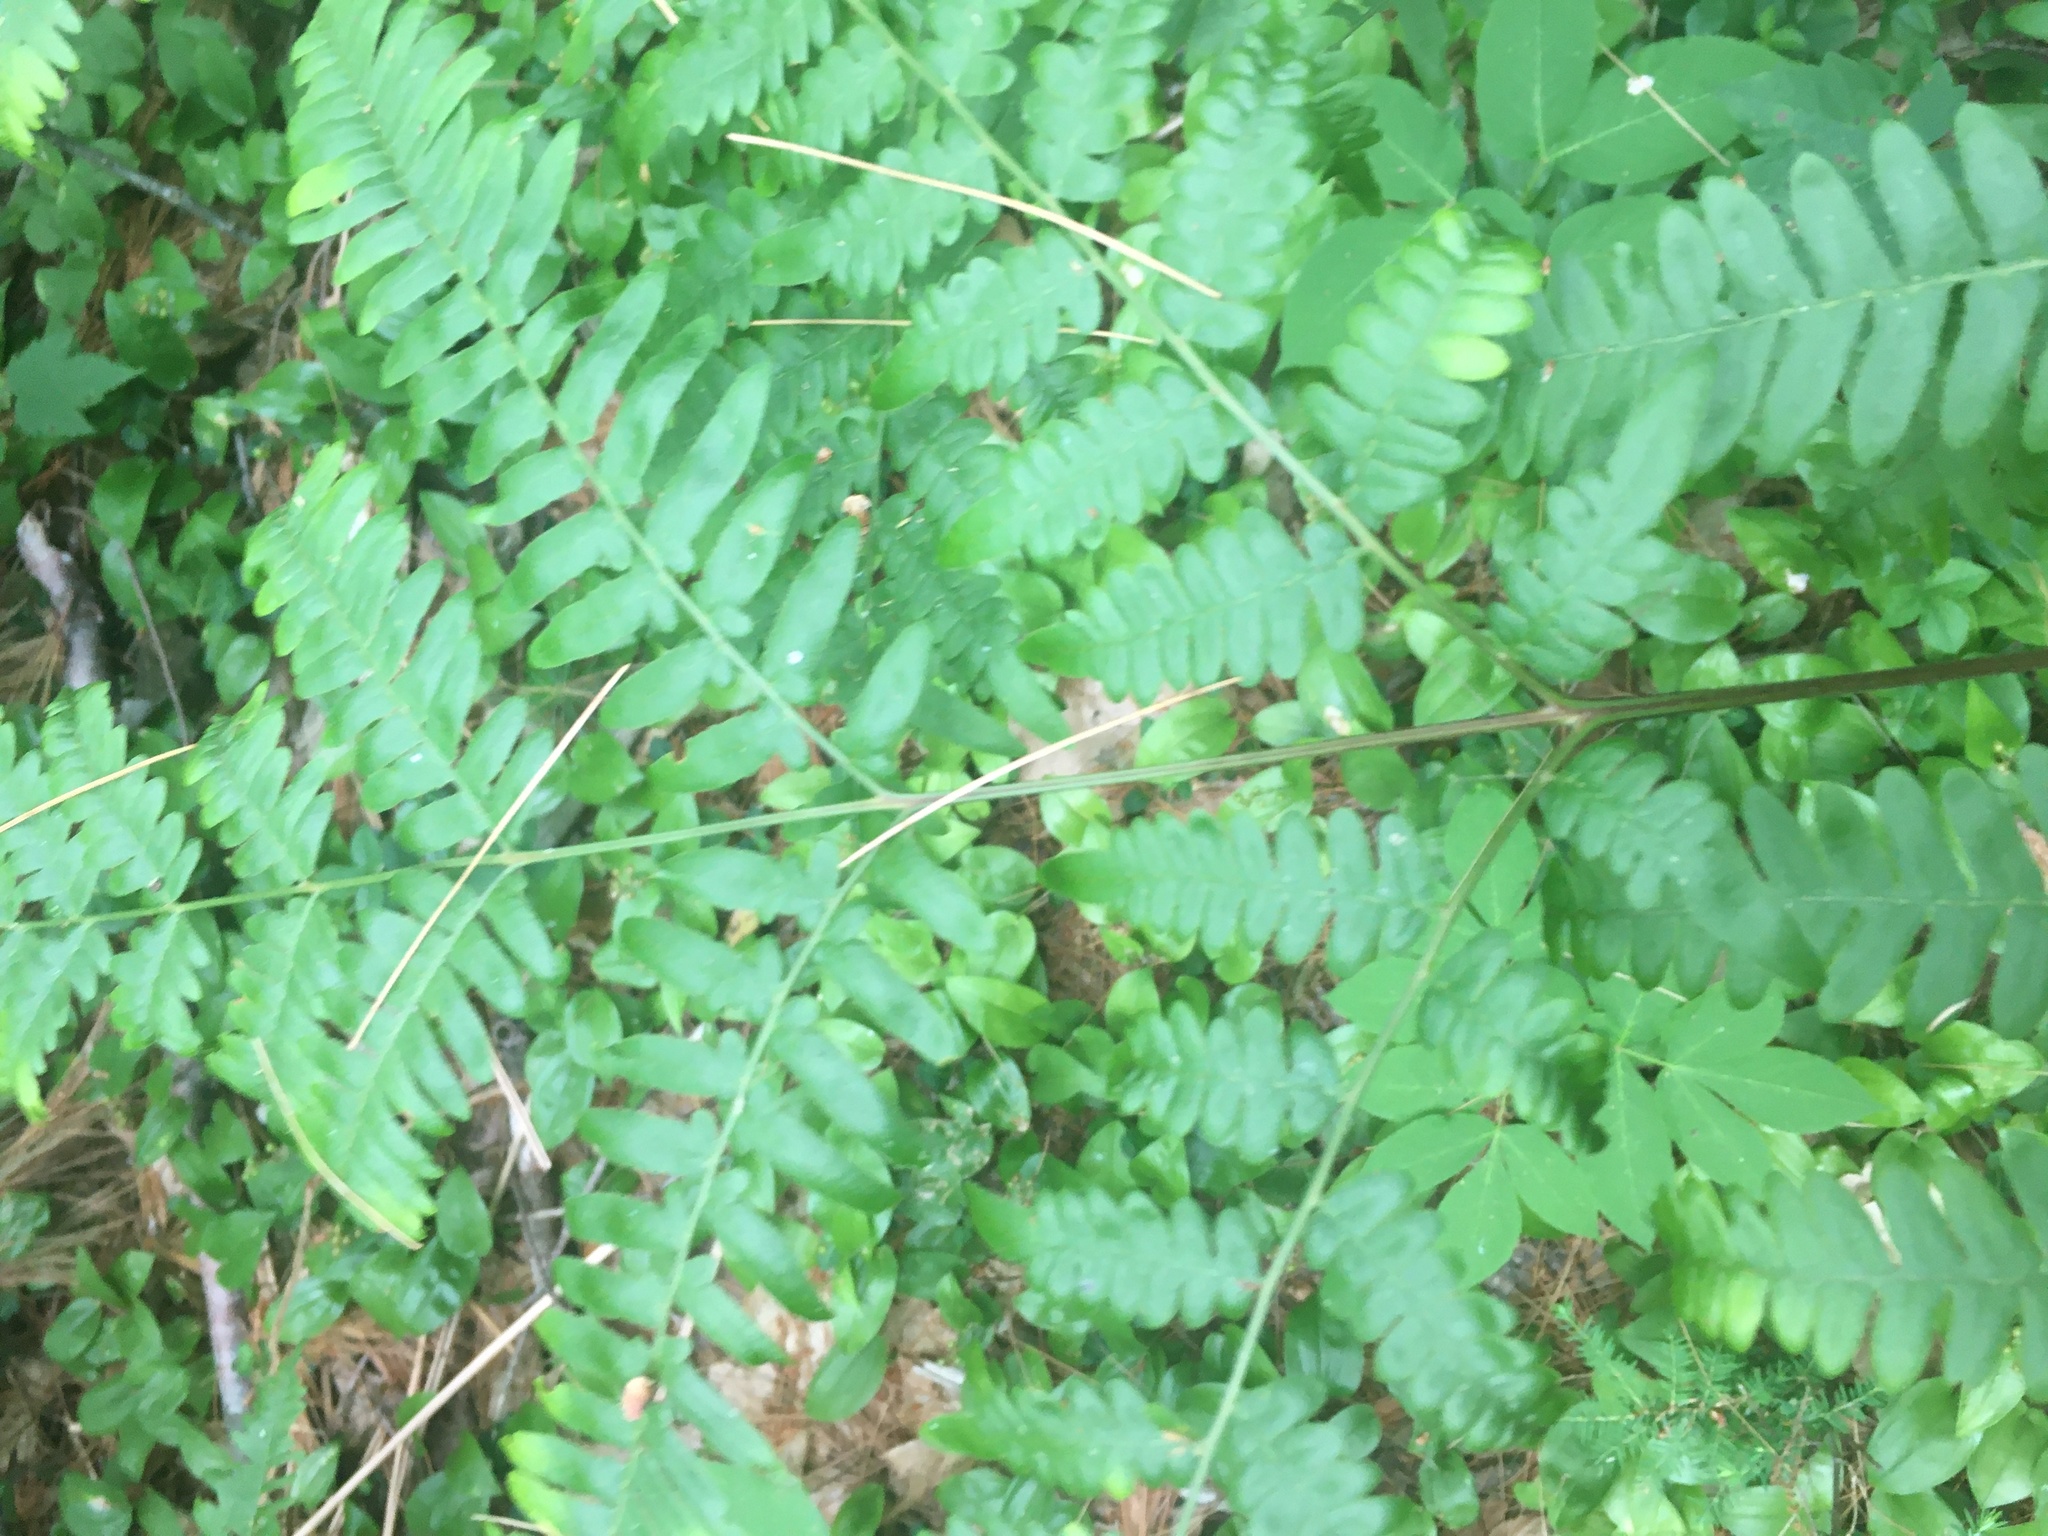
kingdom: Plantae
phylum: Tracheophyta
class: Polypodiopsida
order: Polypodiales
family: Dennstaedtiaceae
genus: Pteridium
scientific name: Pteridium aquilinum
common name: Bracken
